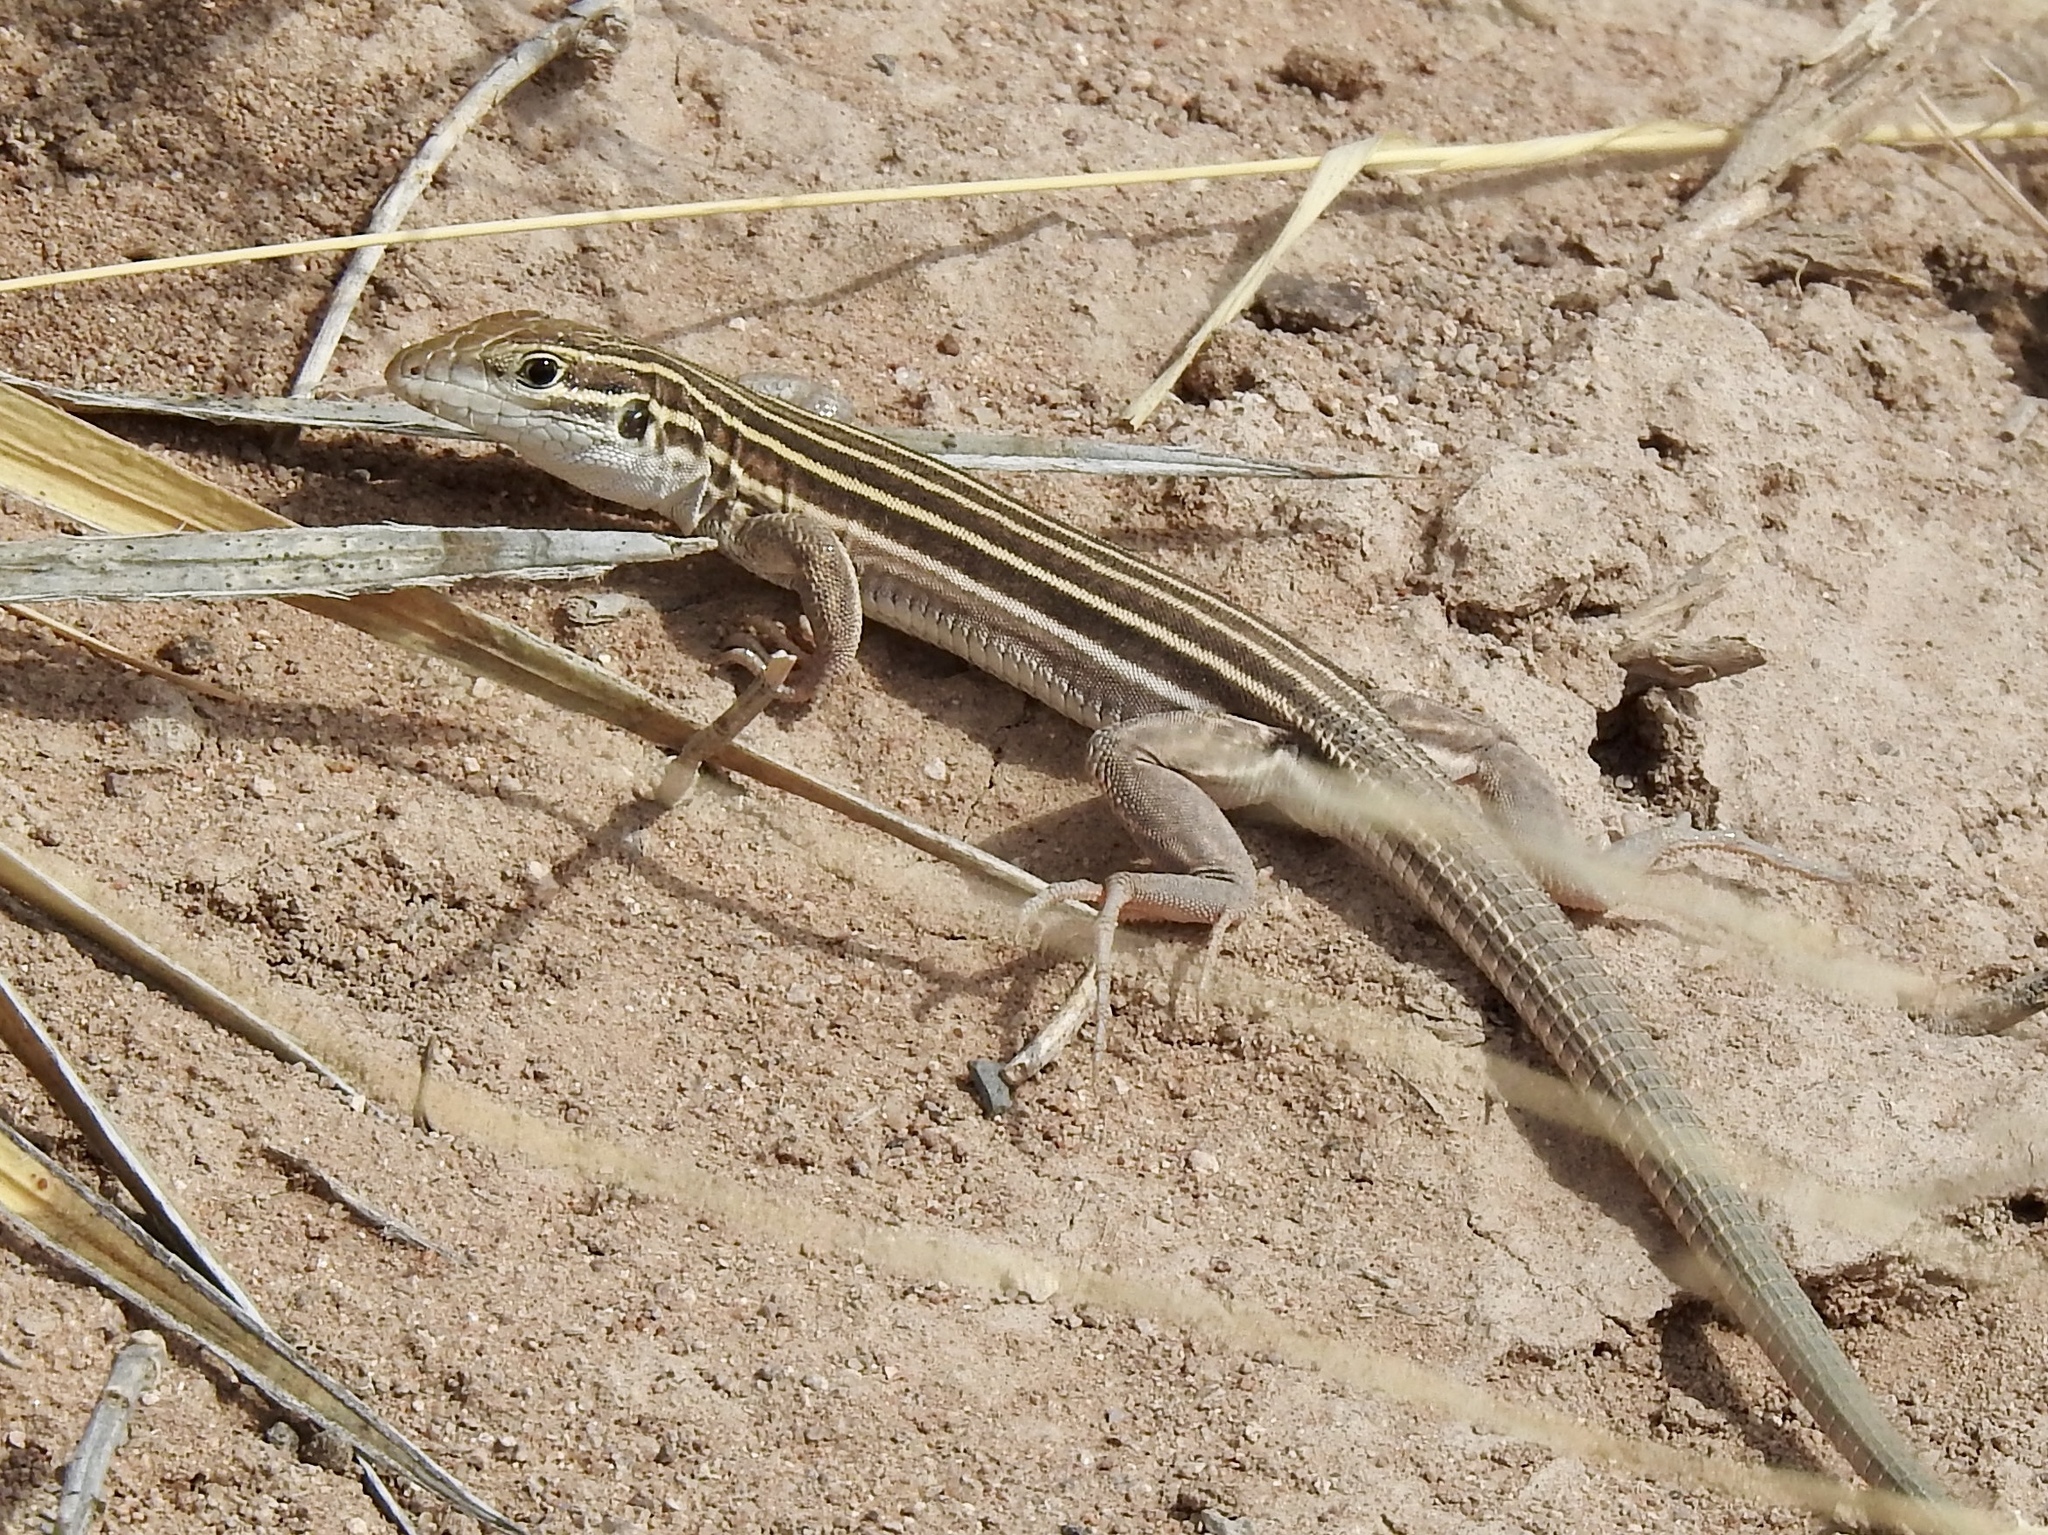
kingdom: Animalia
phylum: Chordata
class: Squamata
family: Teiidae
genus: Aspidoscelis
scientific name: Aspidoscelis uniparens
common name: Desert grassland whiptail
